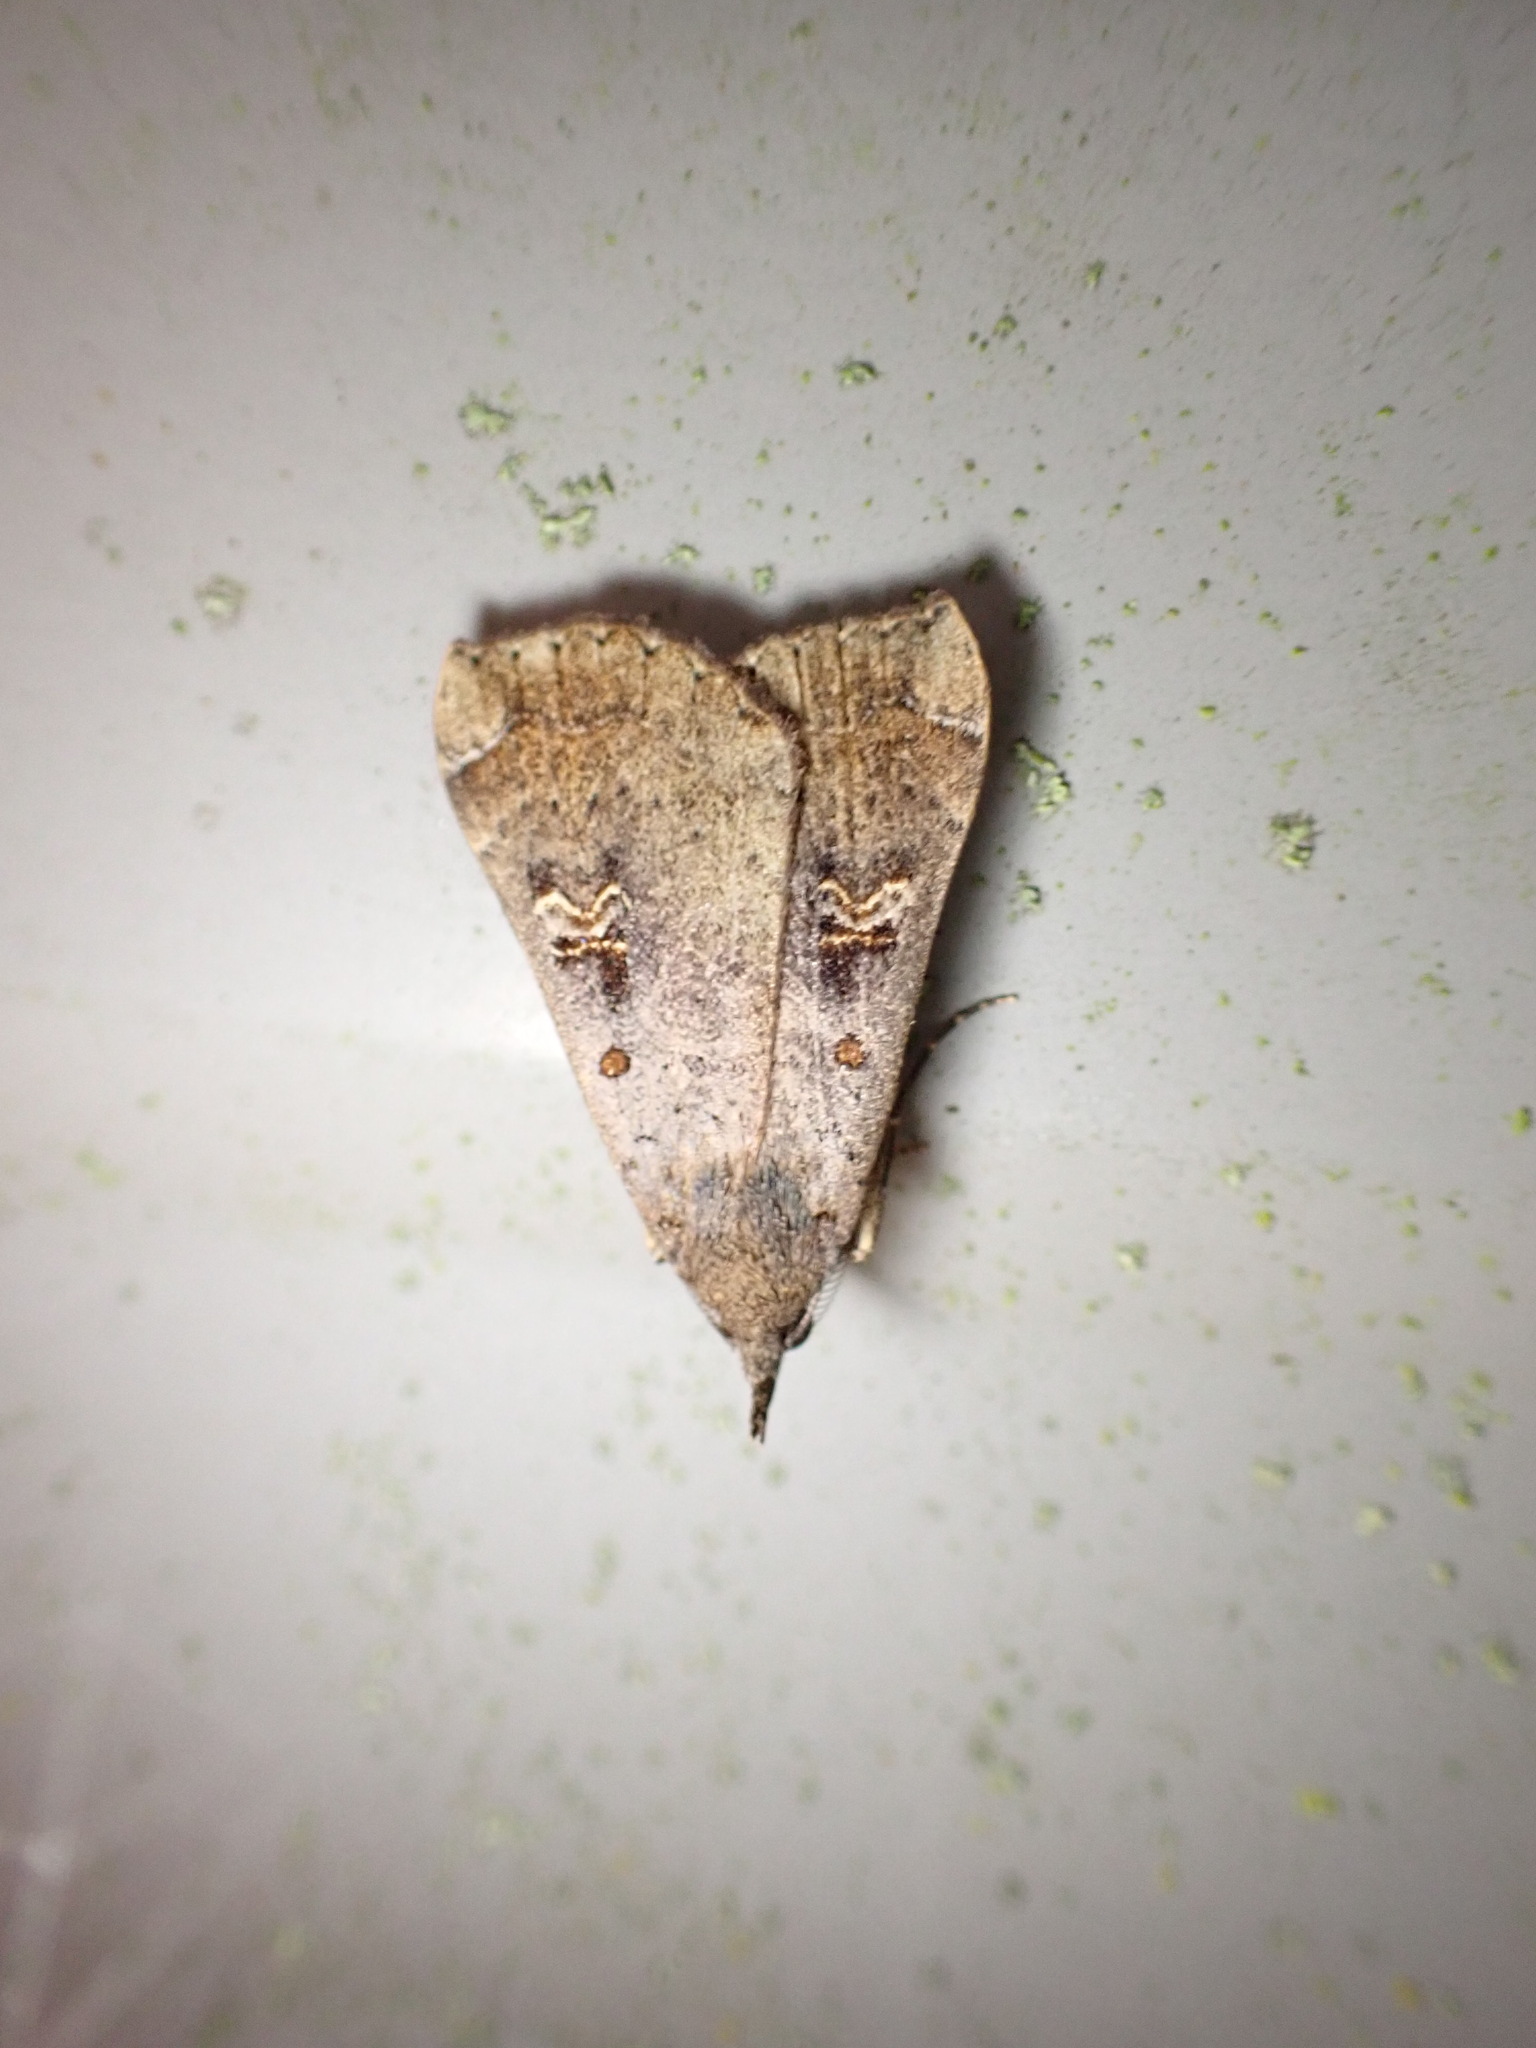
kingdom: Animalia
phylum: Arthropoda
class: Insecta
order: Lepidoptera
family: Erebidae
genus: Rhapsa
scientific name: Rhapsa scotosialis
